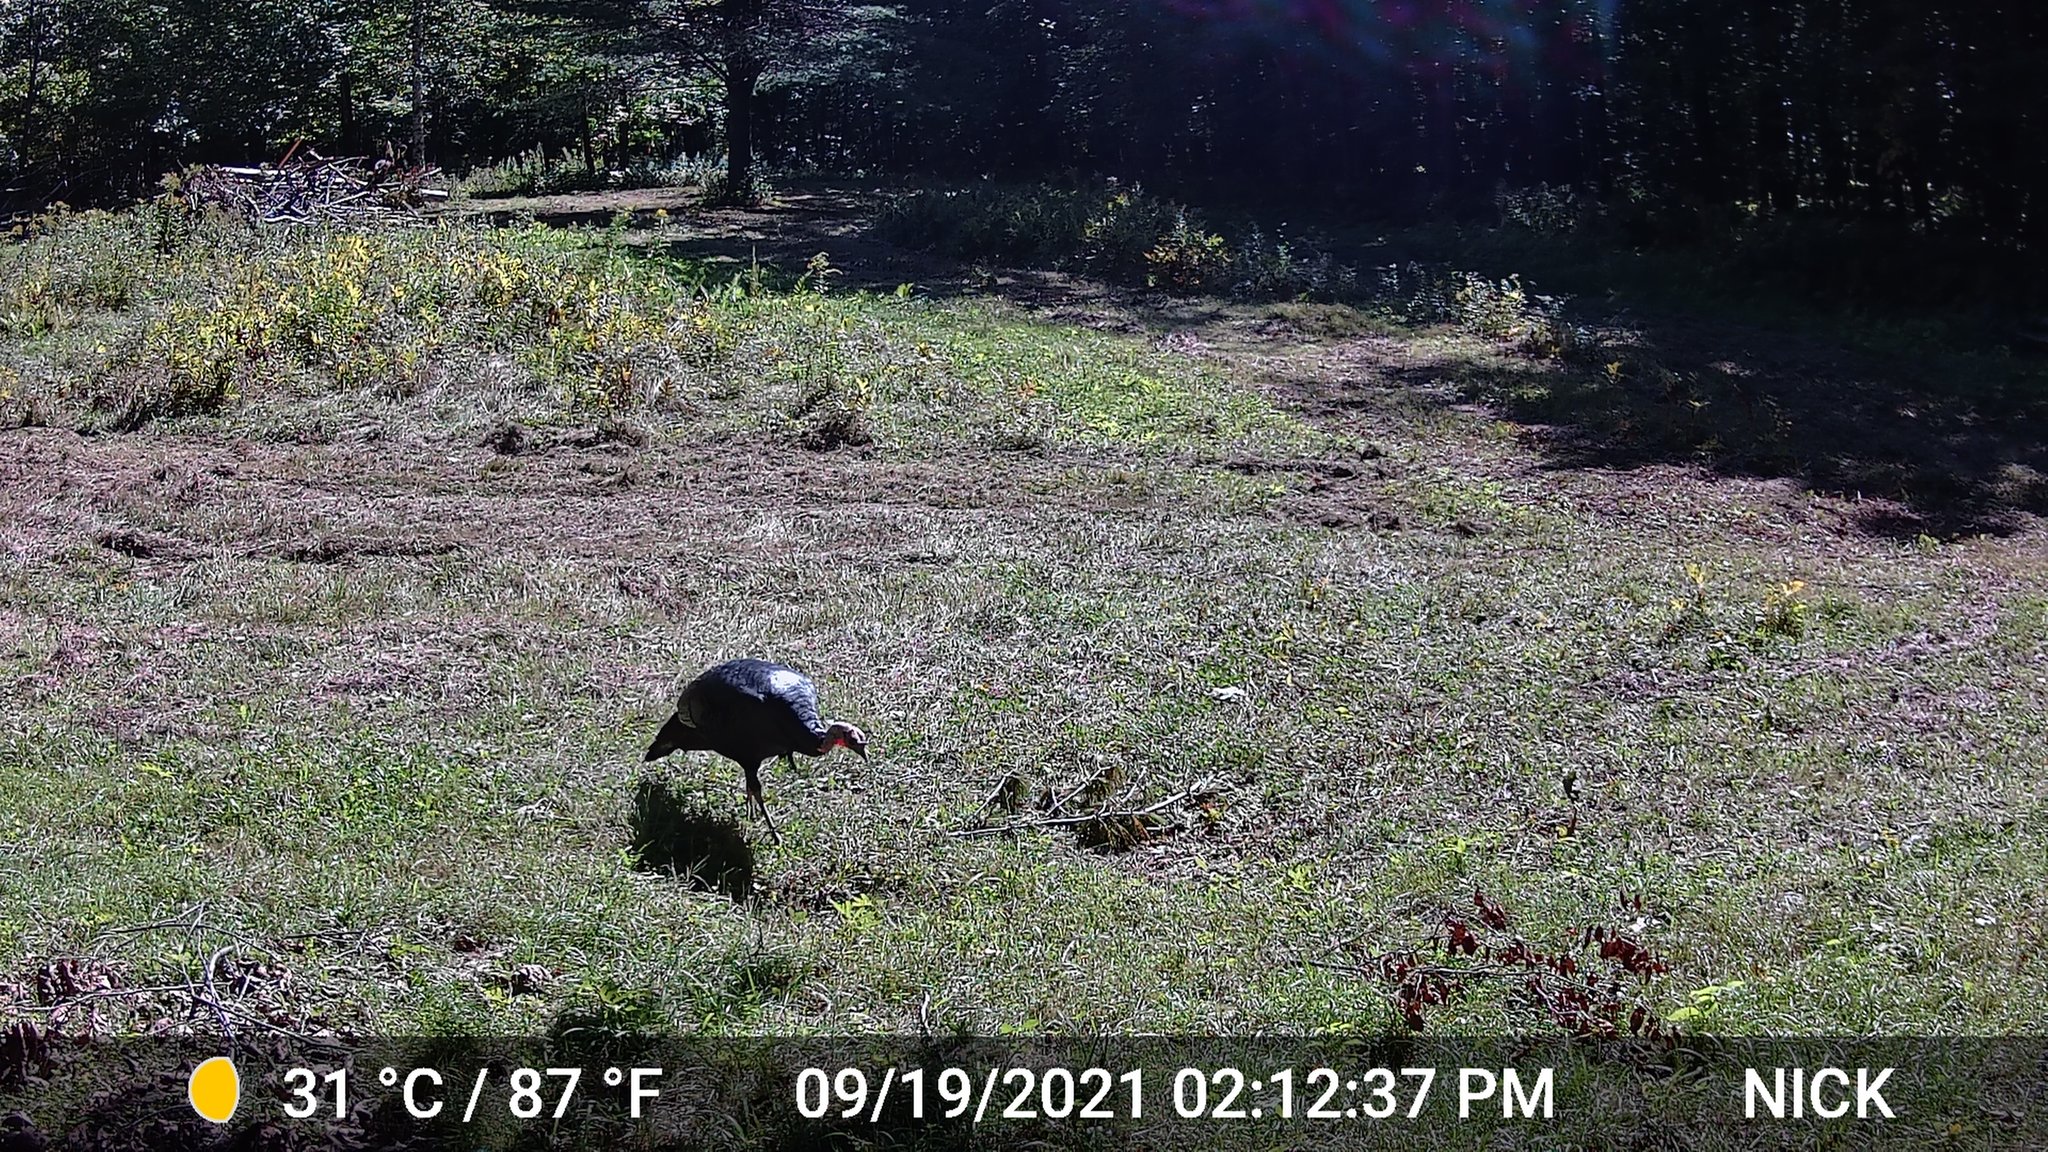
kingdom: Animalia
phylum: Chordata
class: Aves
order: Galliformes
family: Phasianidae
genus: Meleagris
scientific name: Meleagris gallopavo
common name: Wild turkey
